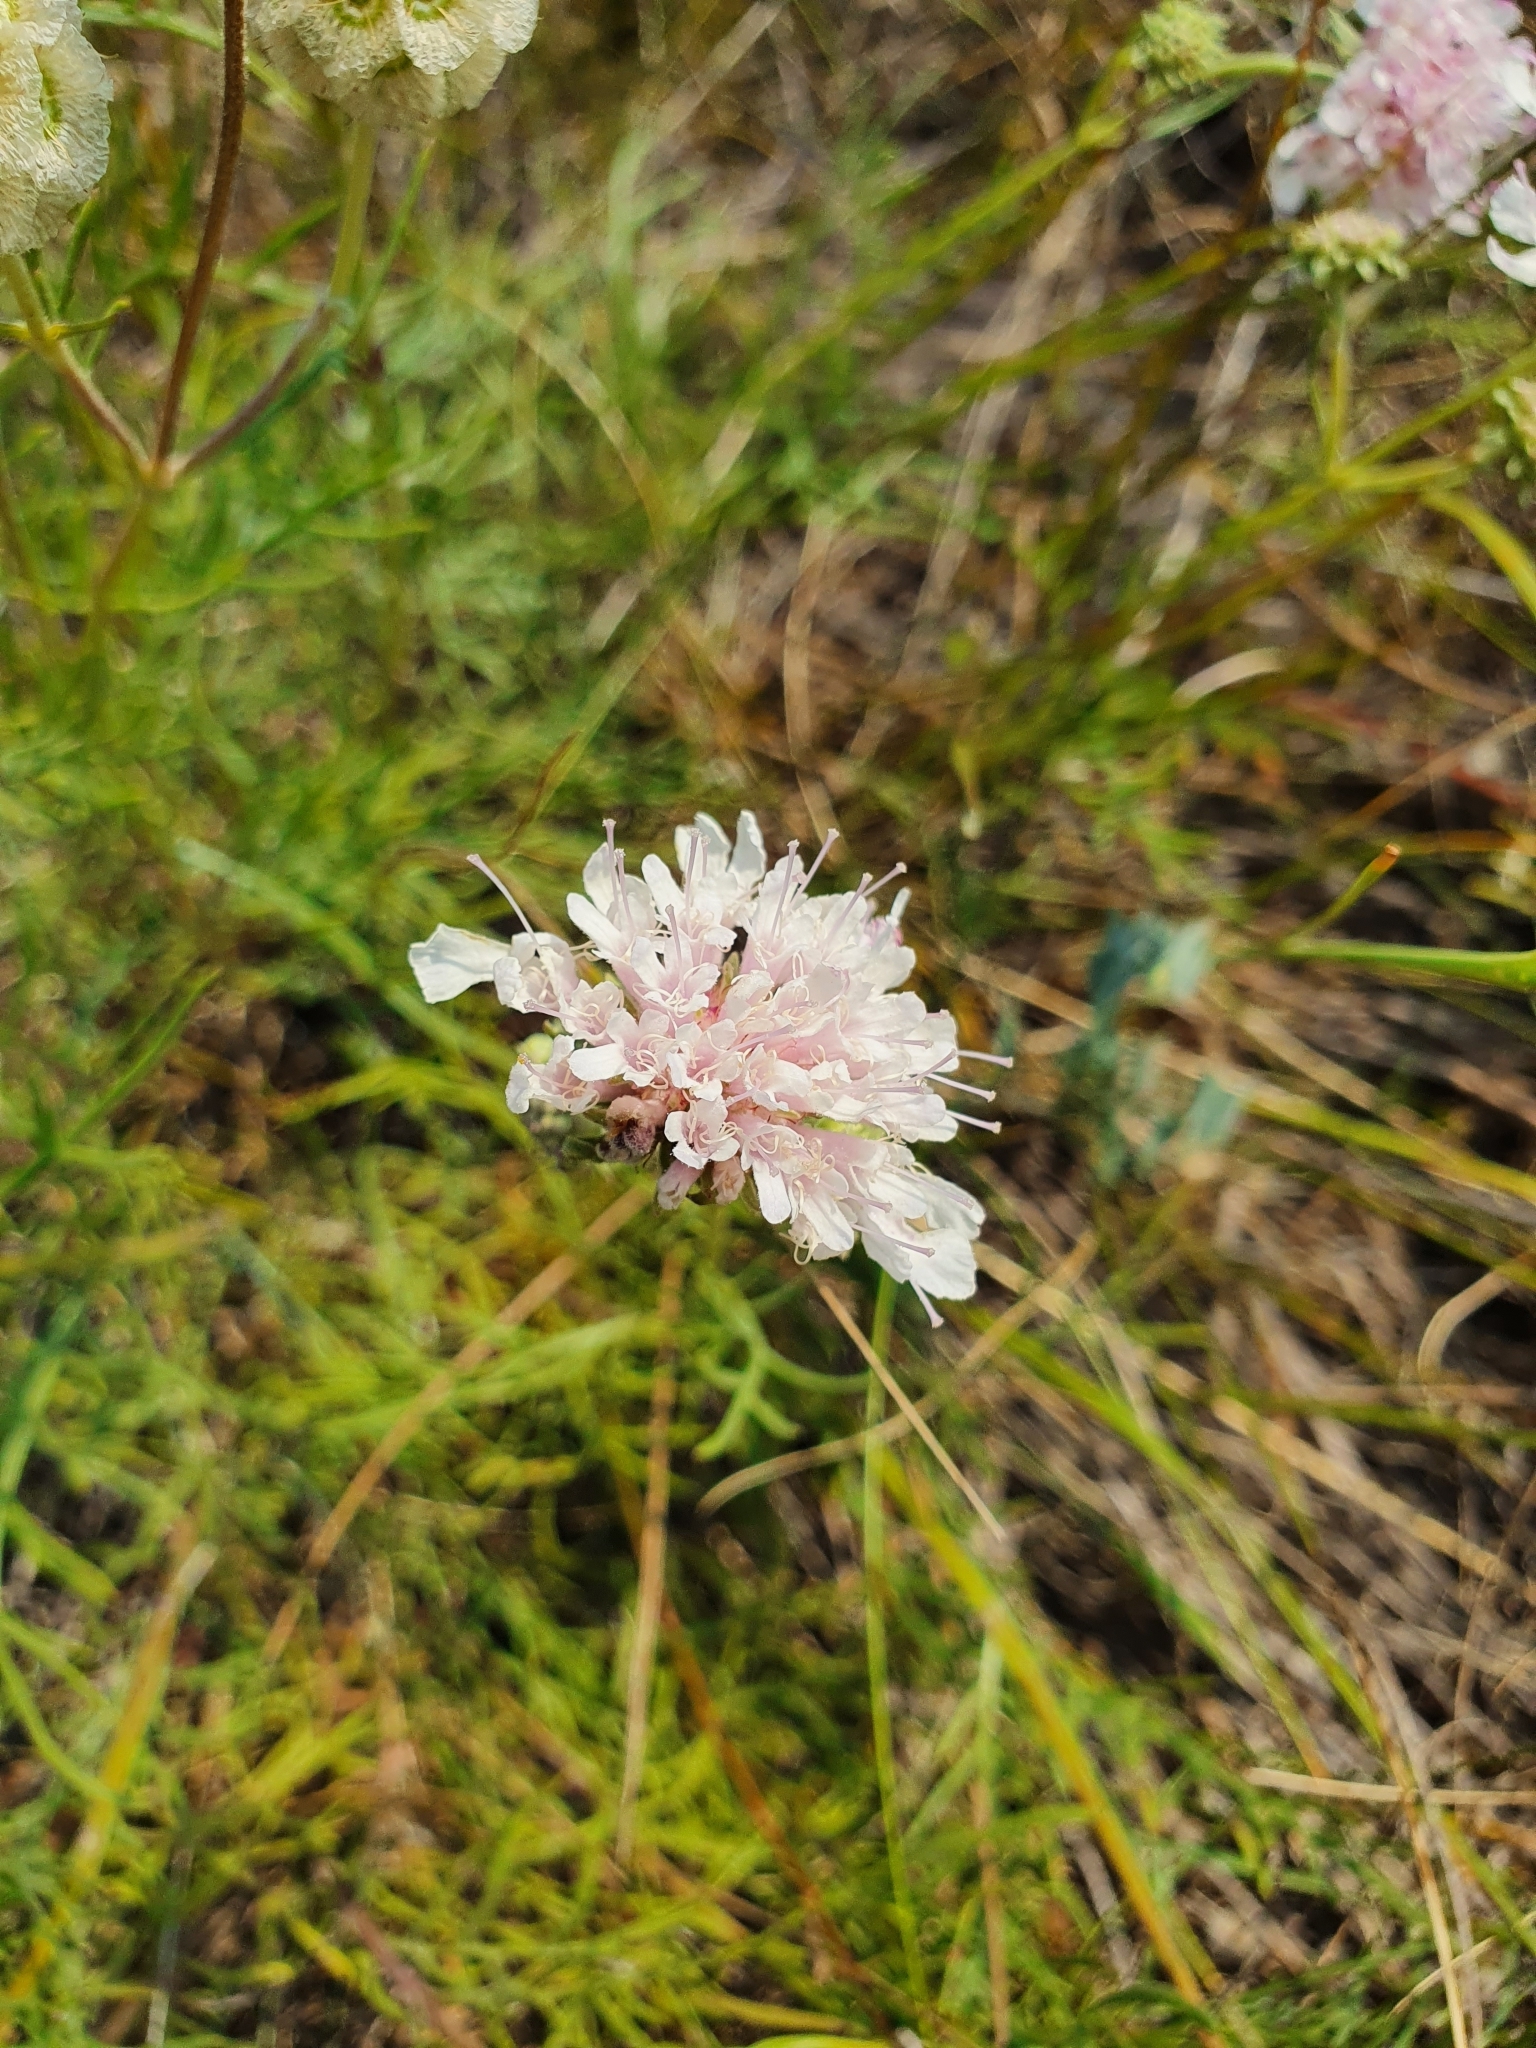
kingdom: Plantae
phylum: Tracheophyta
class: Magnoliopsida
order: Dipsacales
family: Caprifoliaceae
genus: Lomelosia
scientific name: Lomelosia isetensis
